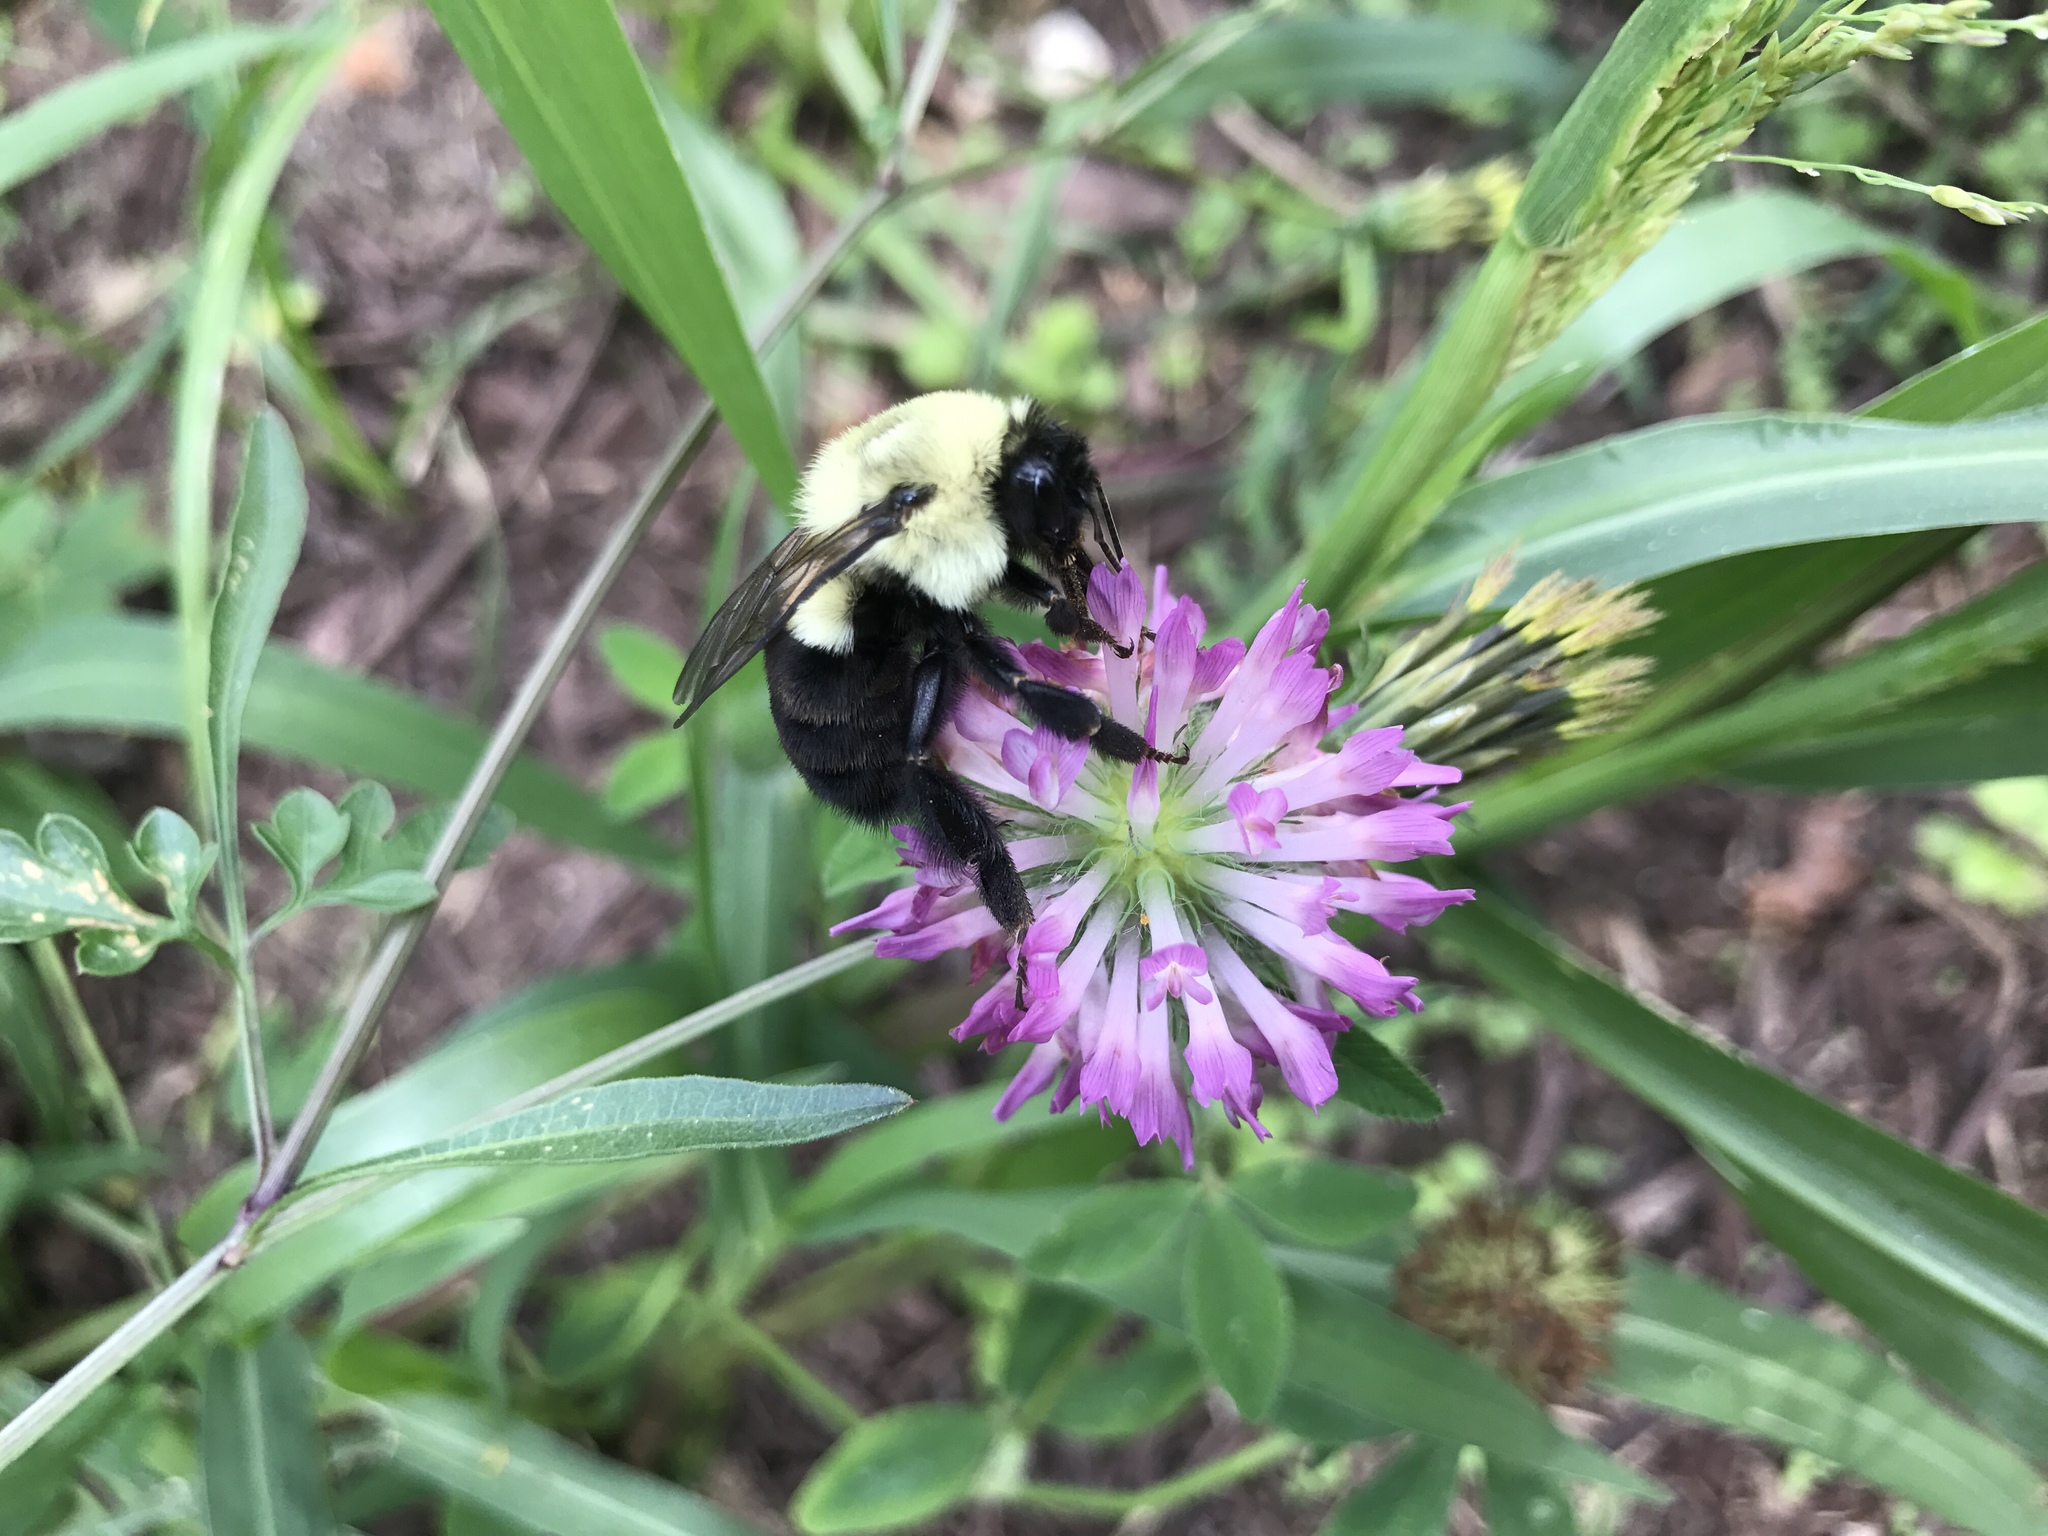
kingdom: Animalia
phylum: Arthropoda
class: Insecta
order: Hymenoptera
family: Apidae
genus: Bombus
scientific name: Bombus impatiens
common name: Common eastern bumble bee
